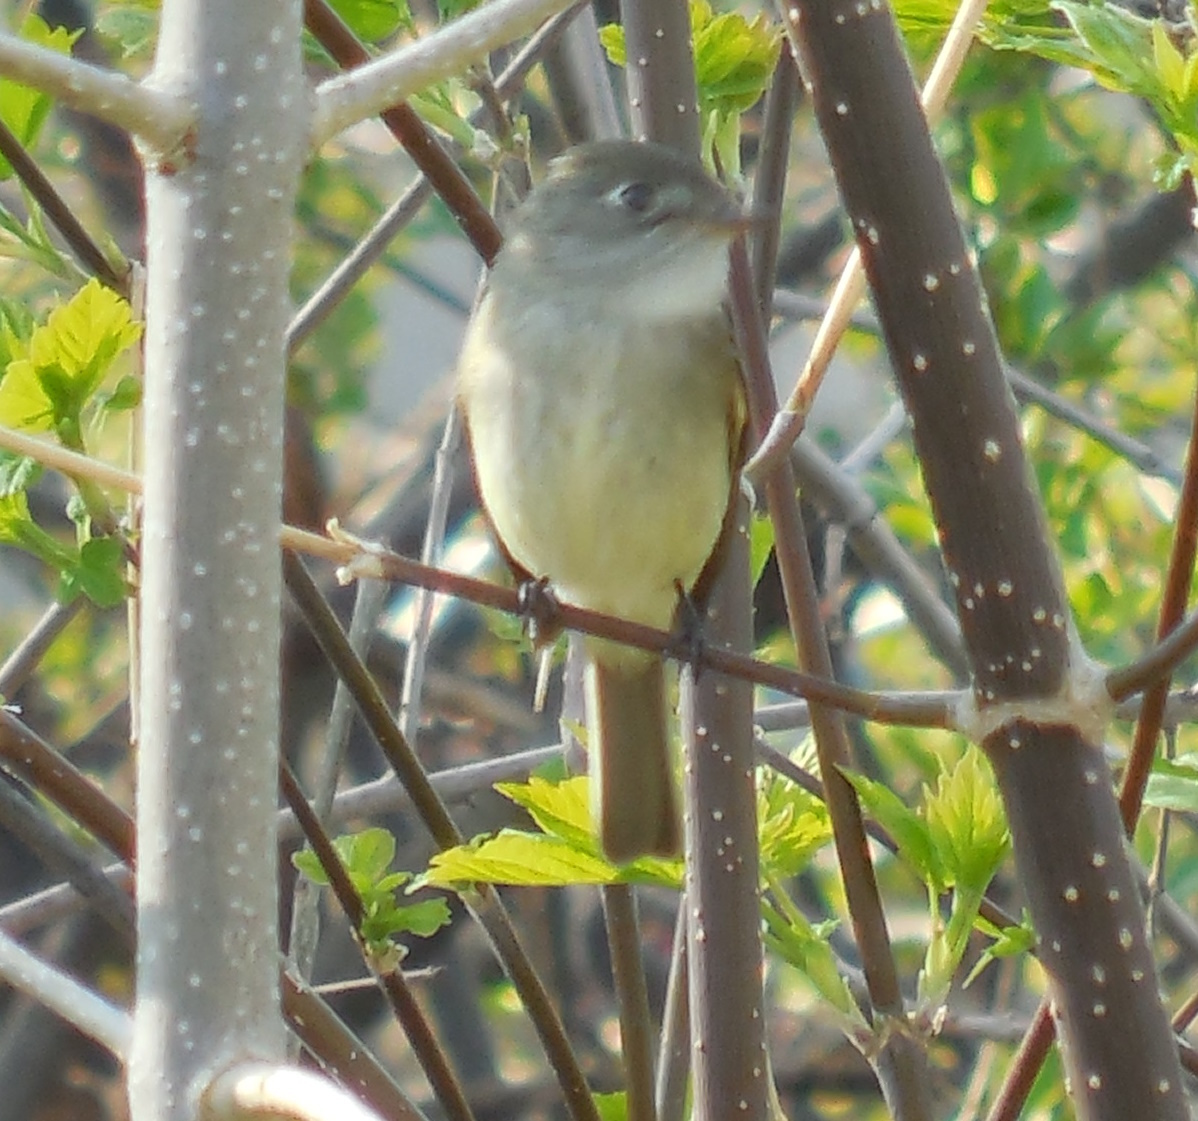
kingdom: Animalia
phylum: Chordata
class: Aves
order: Passeriformes
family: Tyrannidae
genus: Empidonax
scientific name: Empidonax minimus
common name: Least flycatcher
